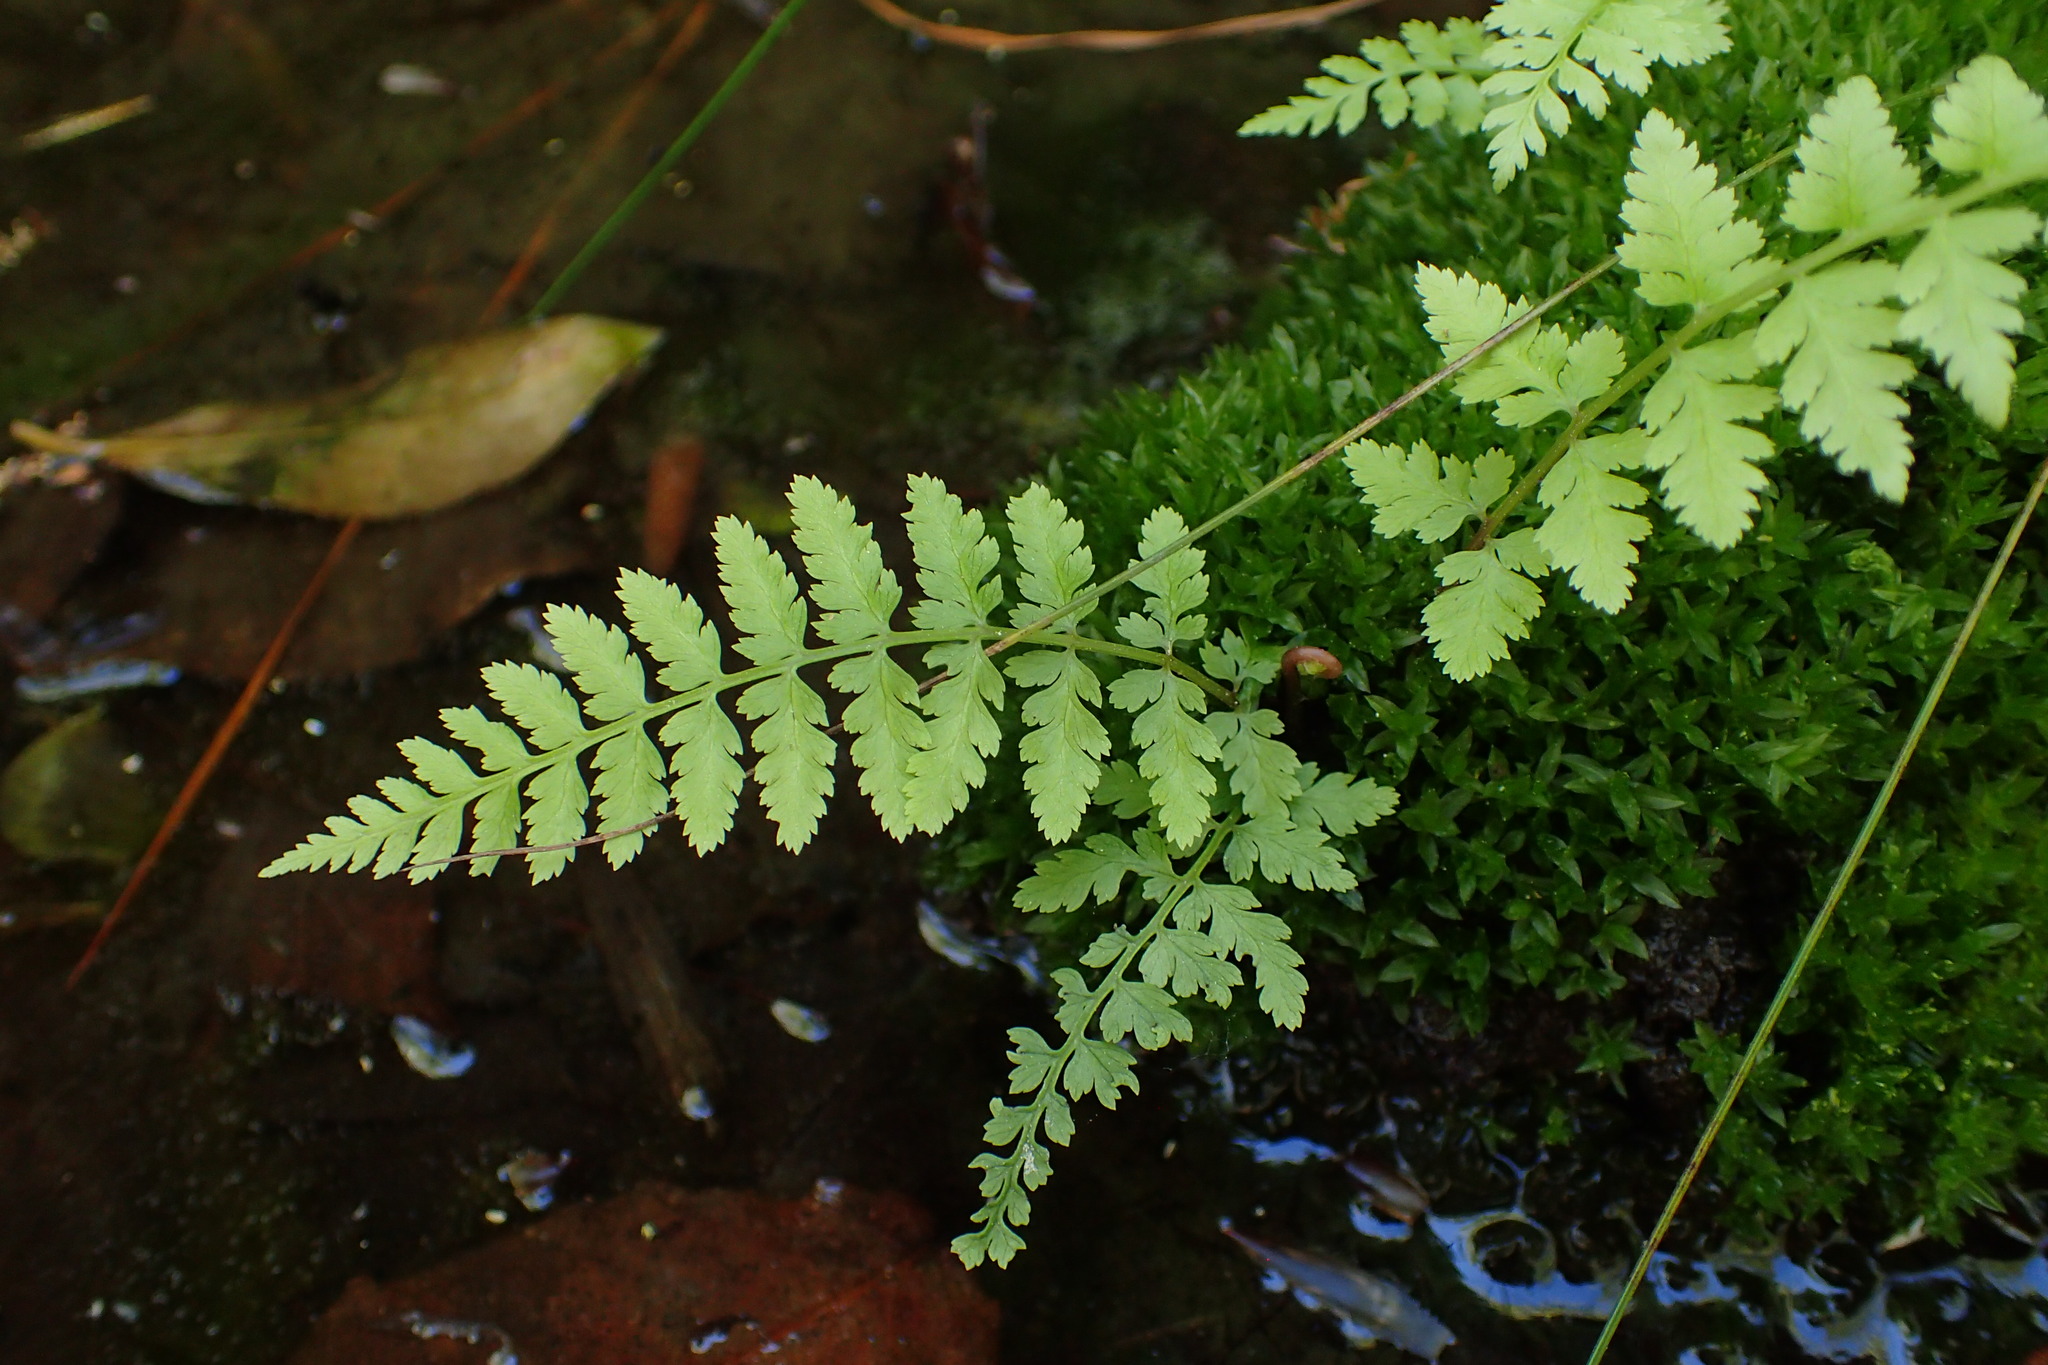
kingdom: Plantae
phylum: Tracheophyta
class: Polypodiopsida
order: Polypodiales
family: Athyriaceae
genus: Athyrium
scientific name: Athyrium asplenioides
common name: Southern lady fern
